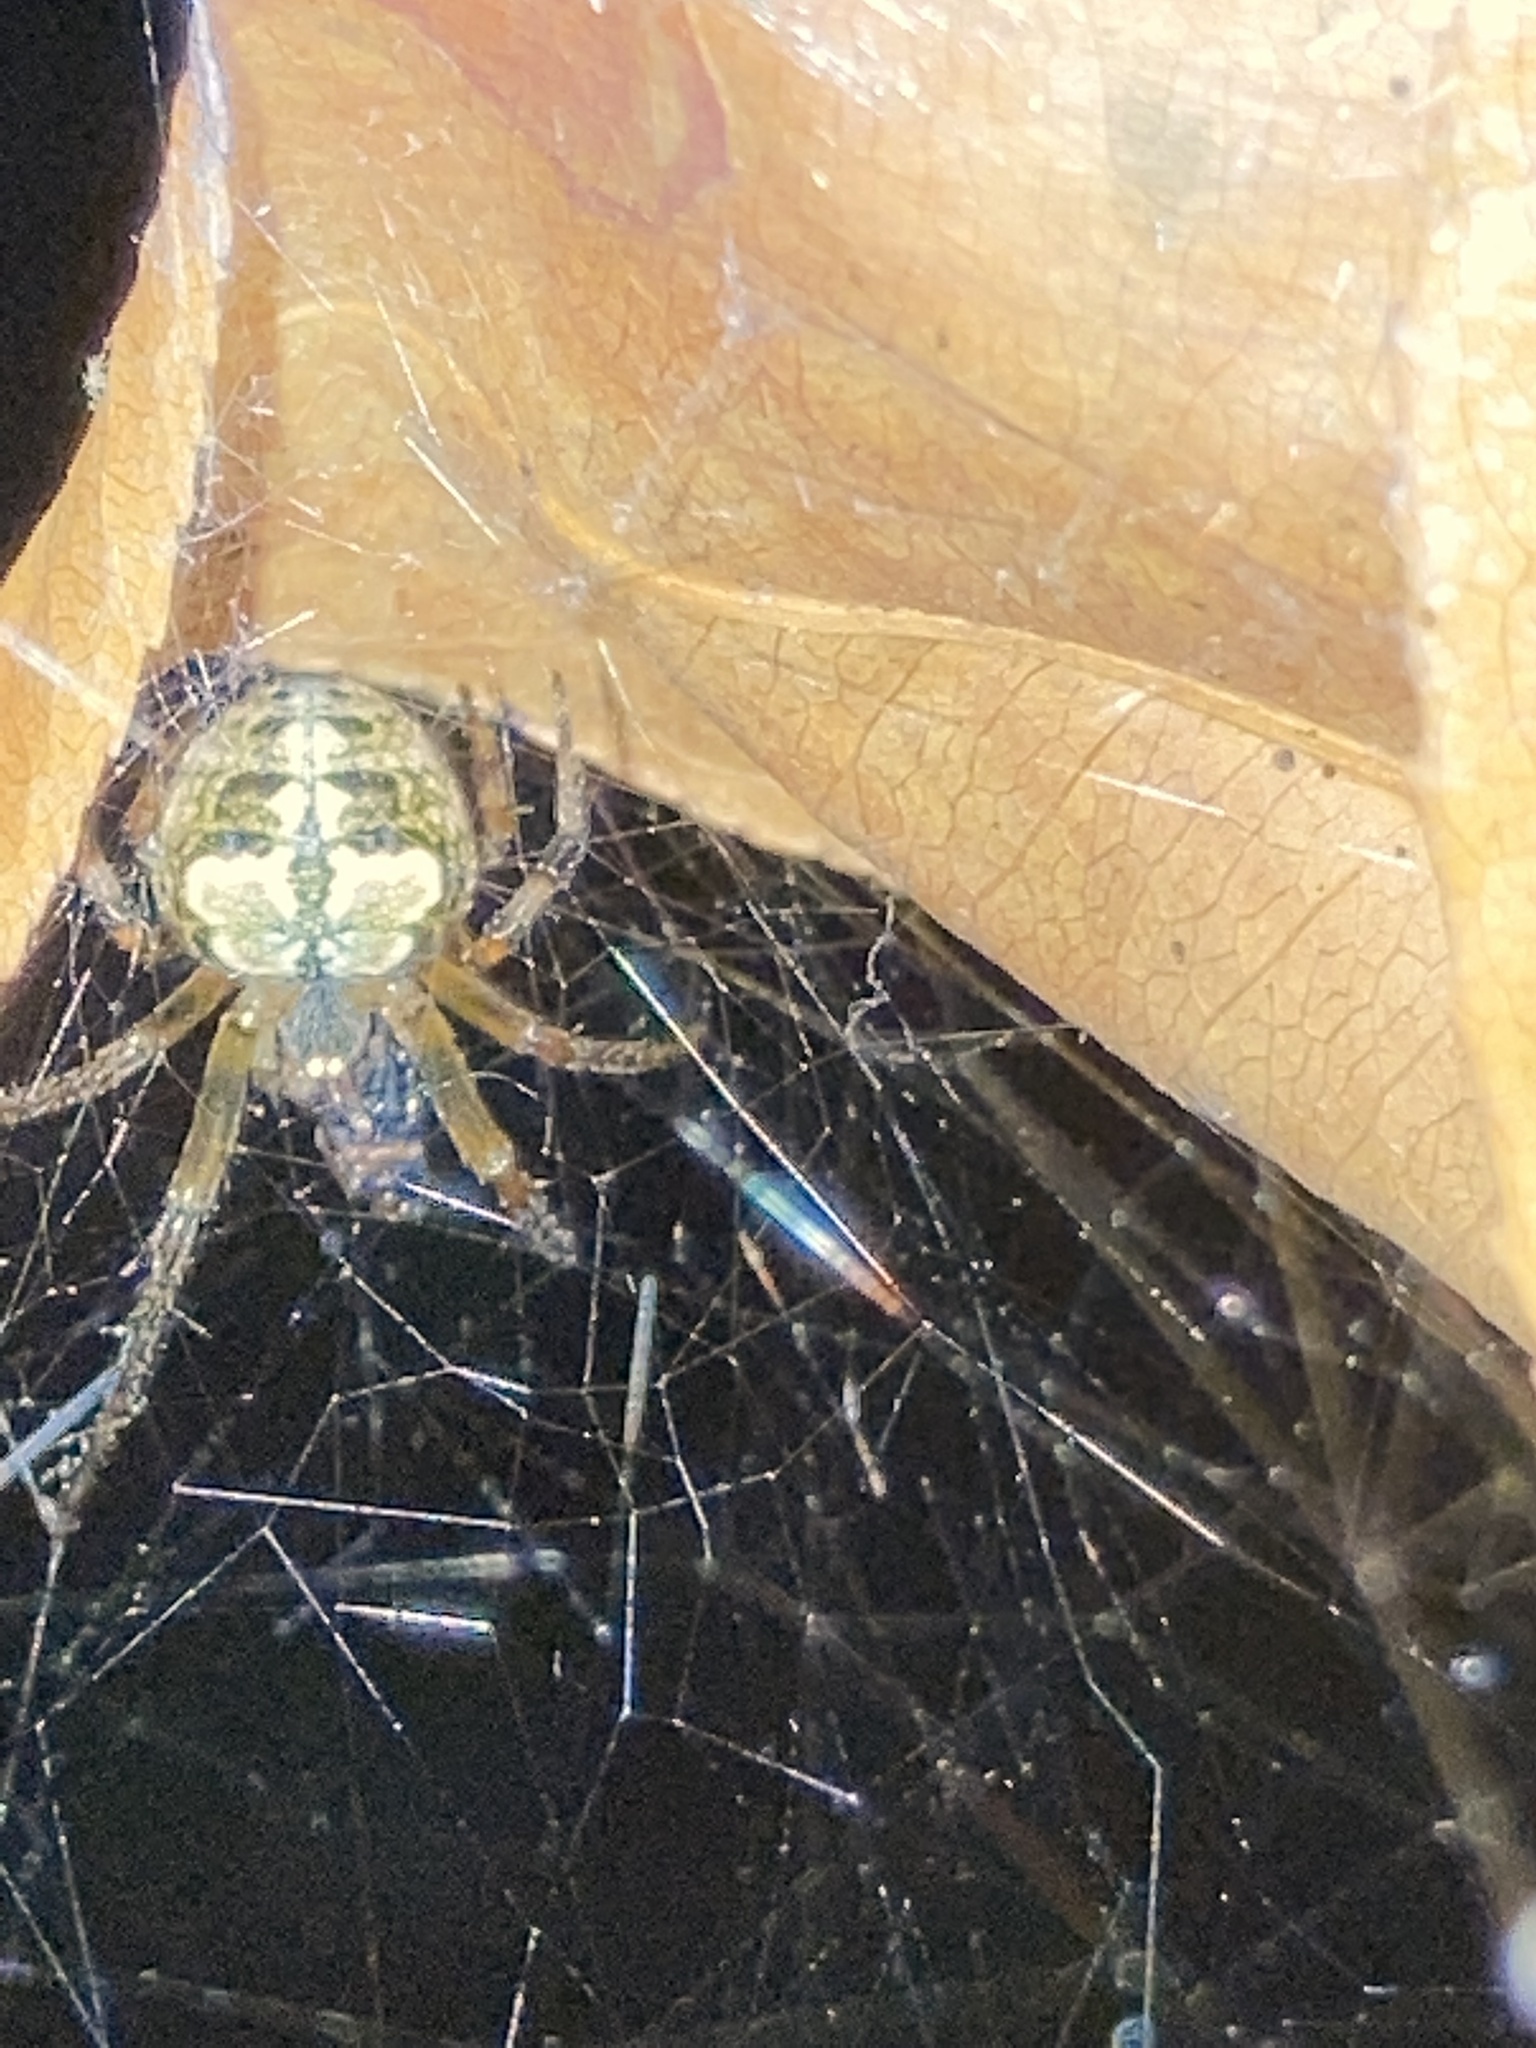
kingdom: Animalia
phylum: Arthropoda
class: Arachnida
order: Araneae
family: Araneidae
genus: Araneus
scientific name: Araneus pegnia
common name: Orb weavers
